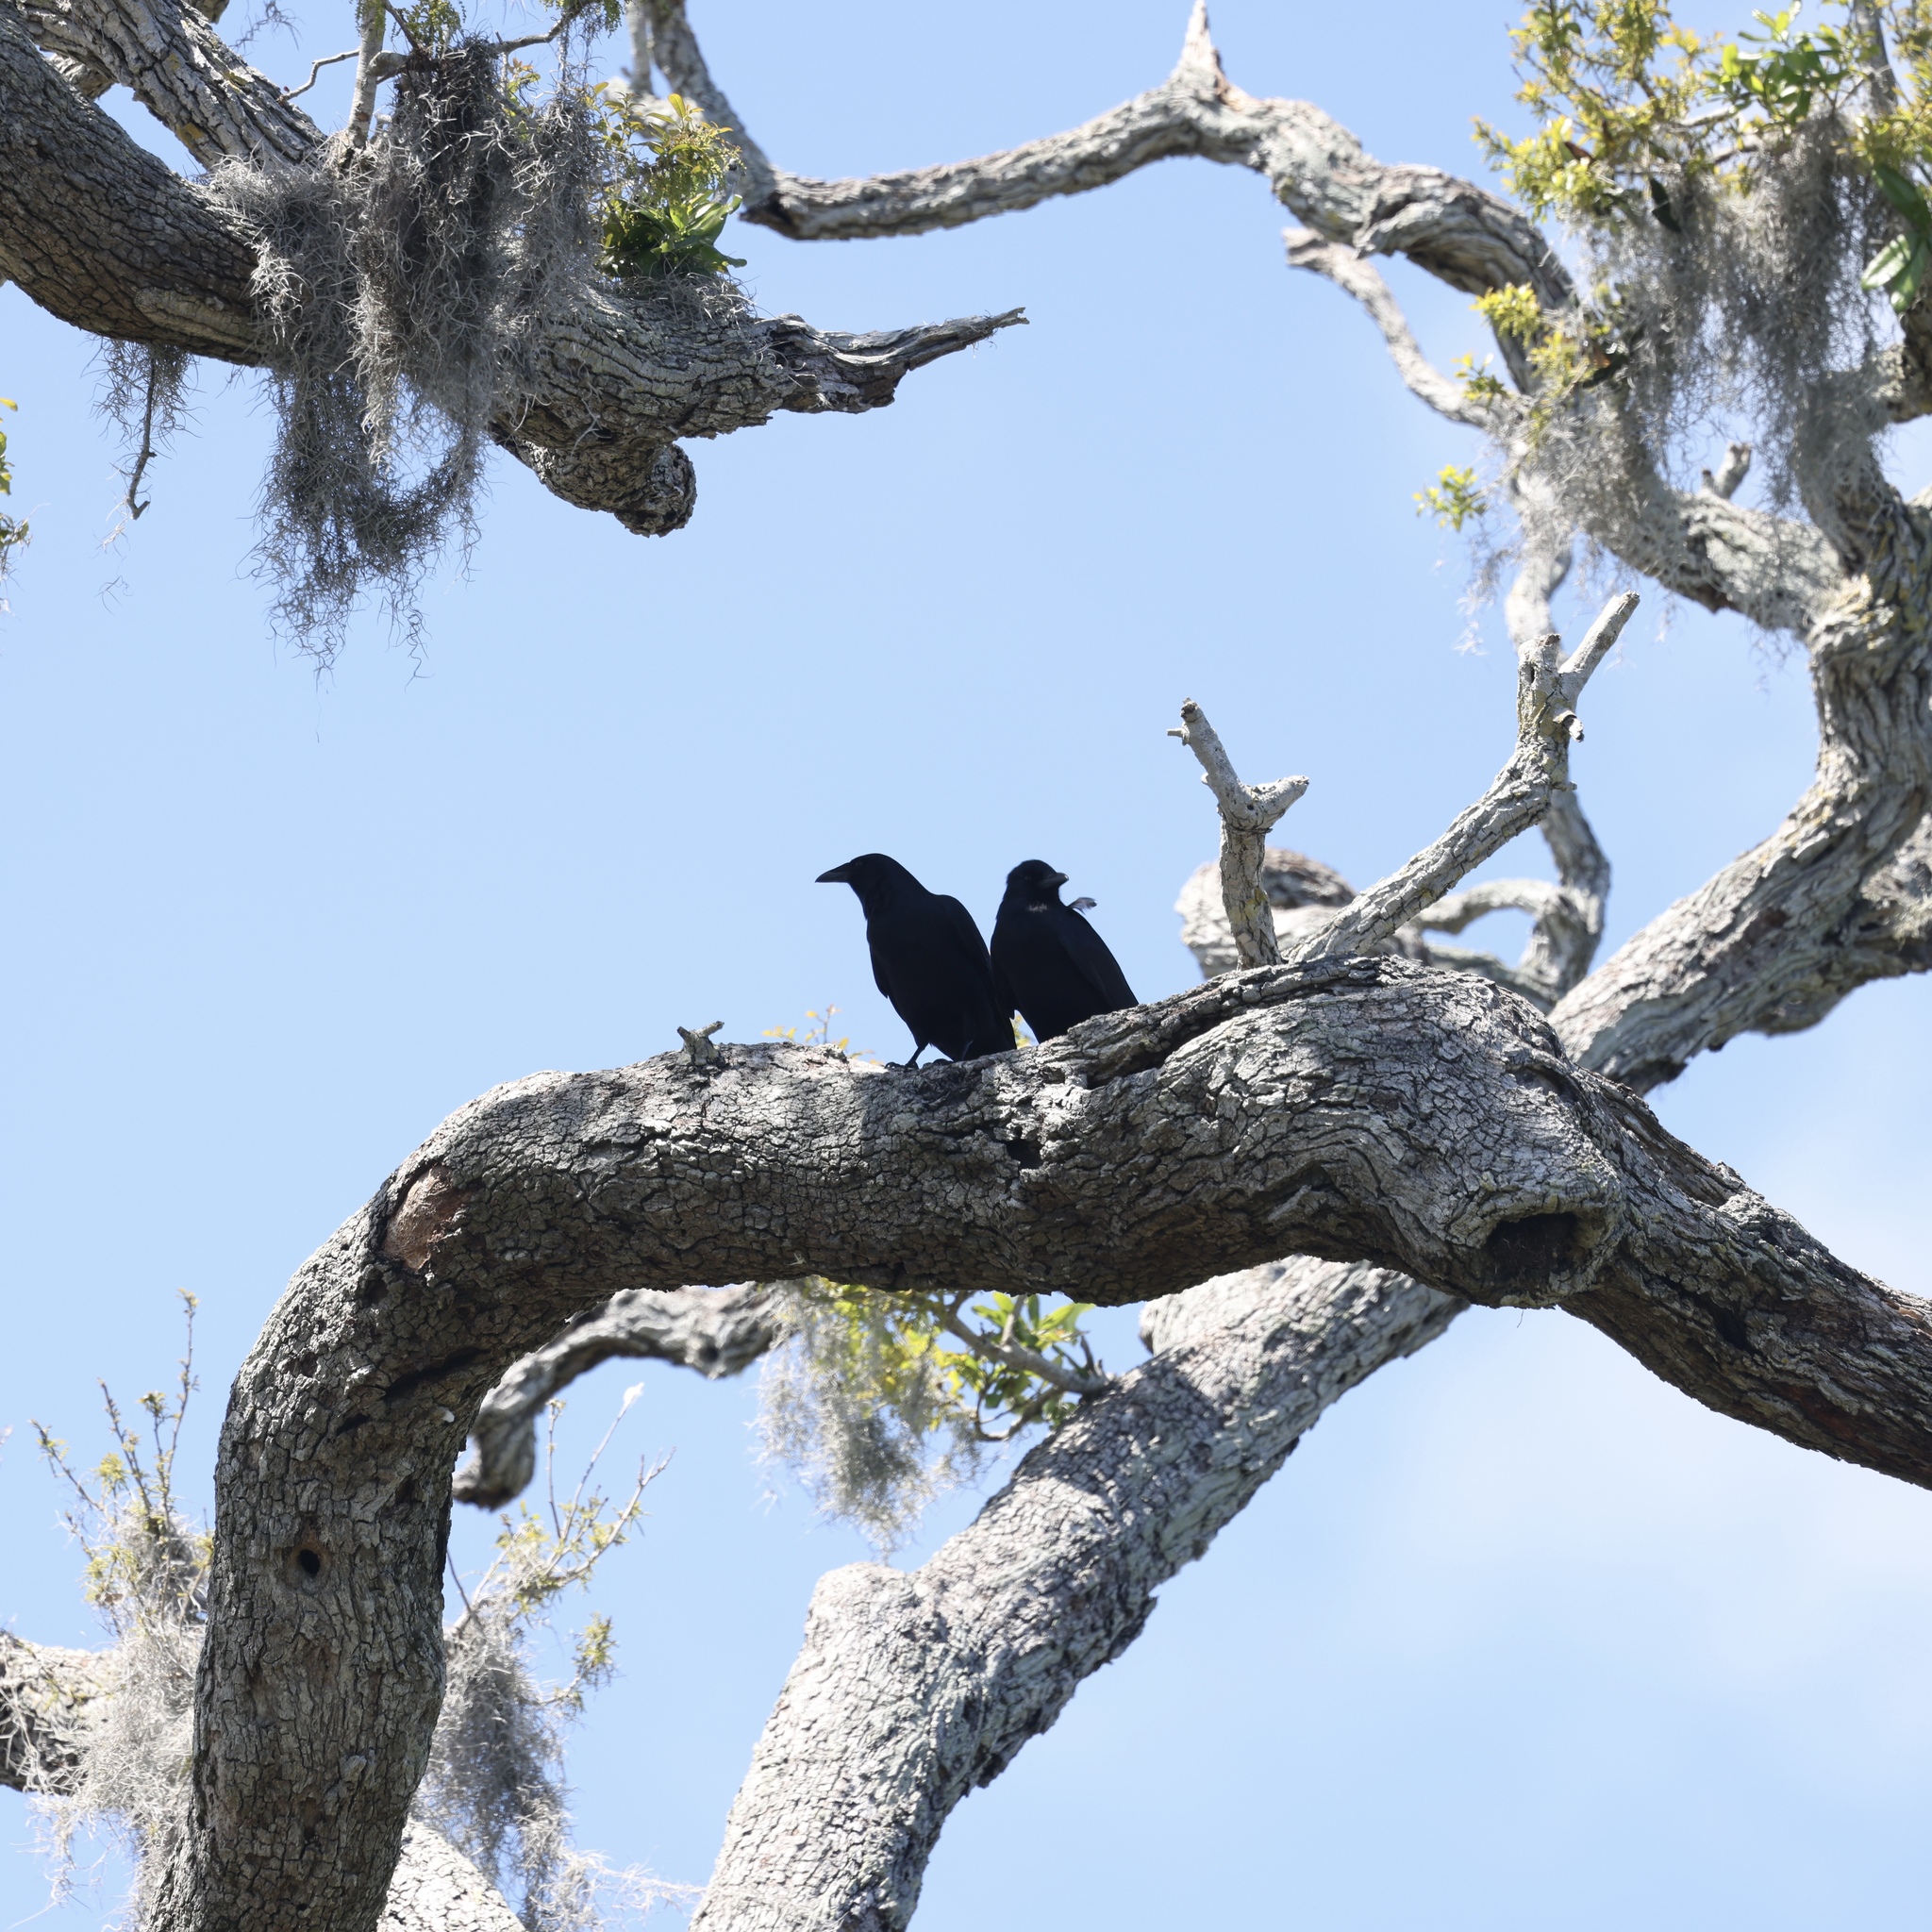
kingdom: Animalia
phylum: Chordata
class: Aves
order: Passeriformes
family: Corvidae
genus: Corvus
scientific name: Corvus ossifragus
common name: Fish crow
